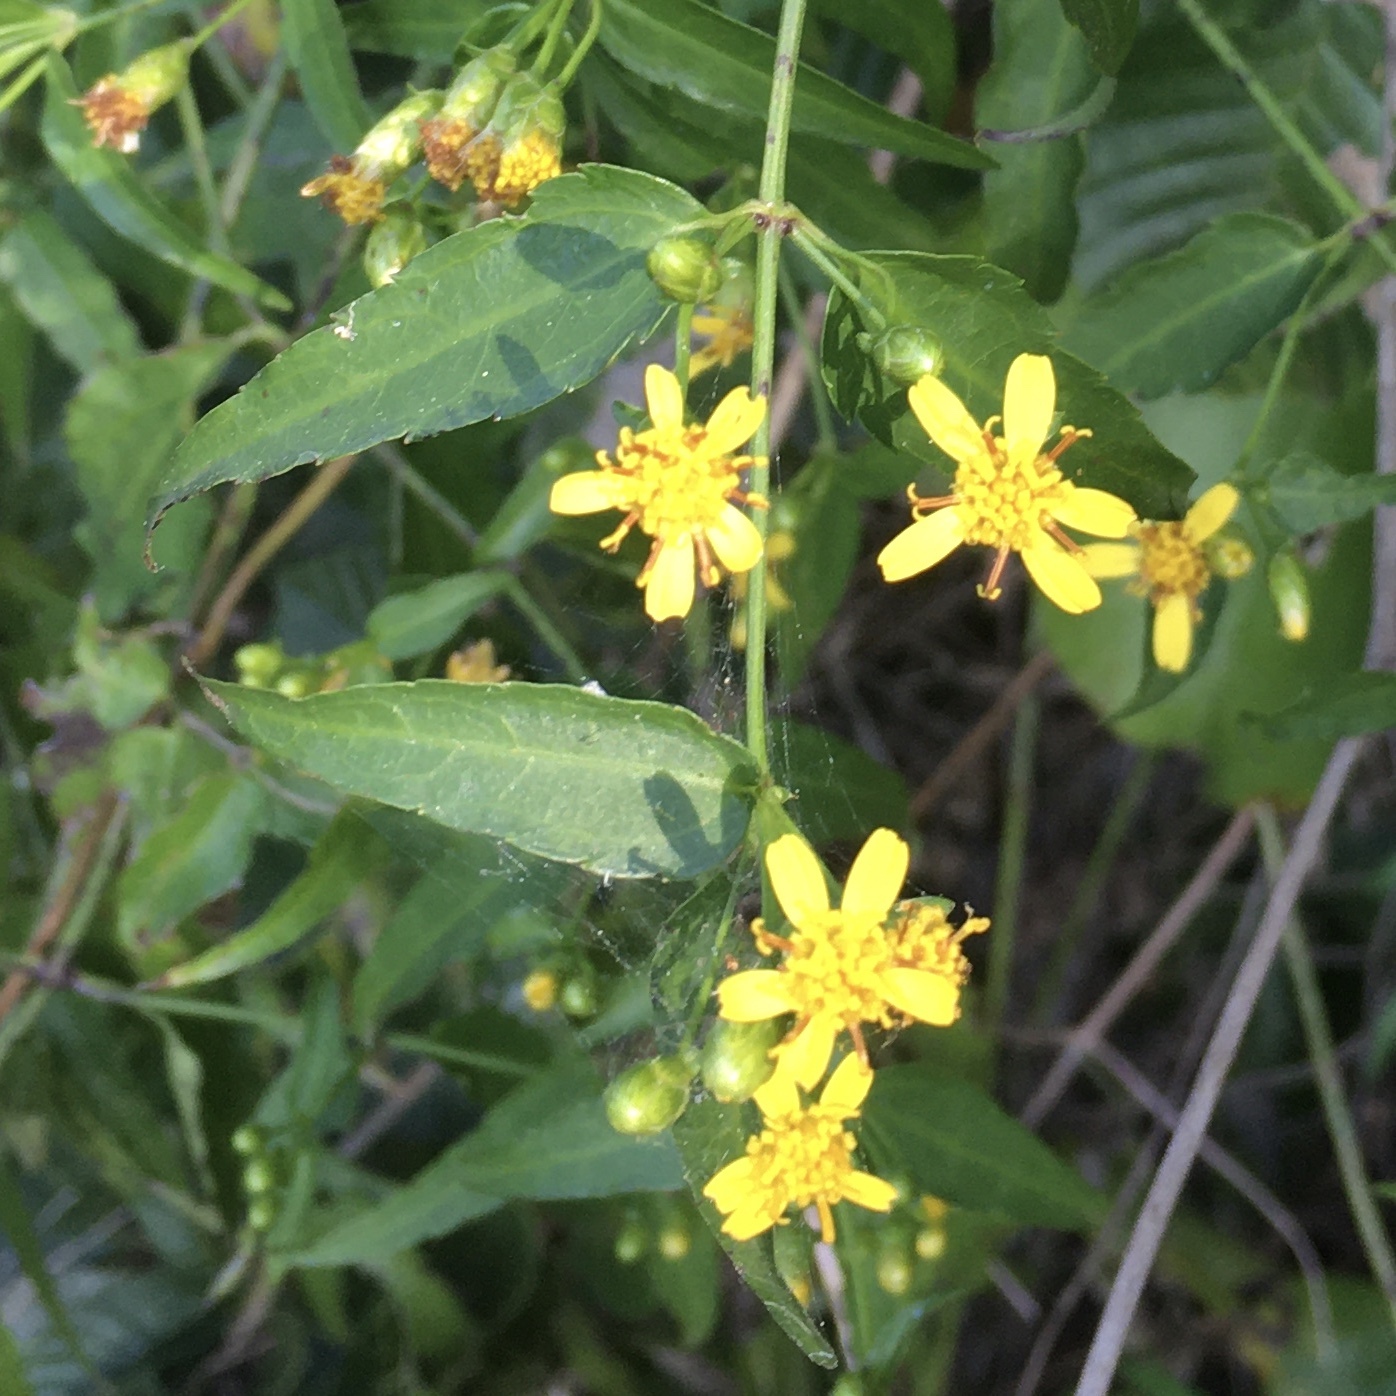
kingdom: Plantae
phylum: Tracheophyta
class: Magnoliopsida
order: Asterales
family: Asteraceae
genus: Calea
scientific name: Calea pinnatifida
